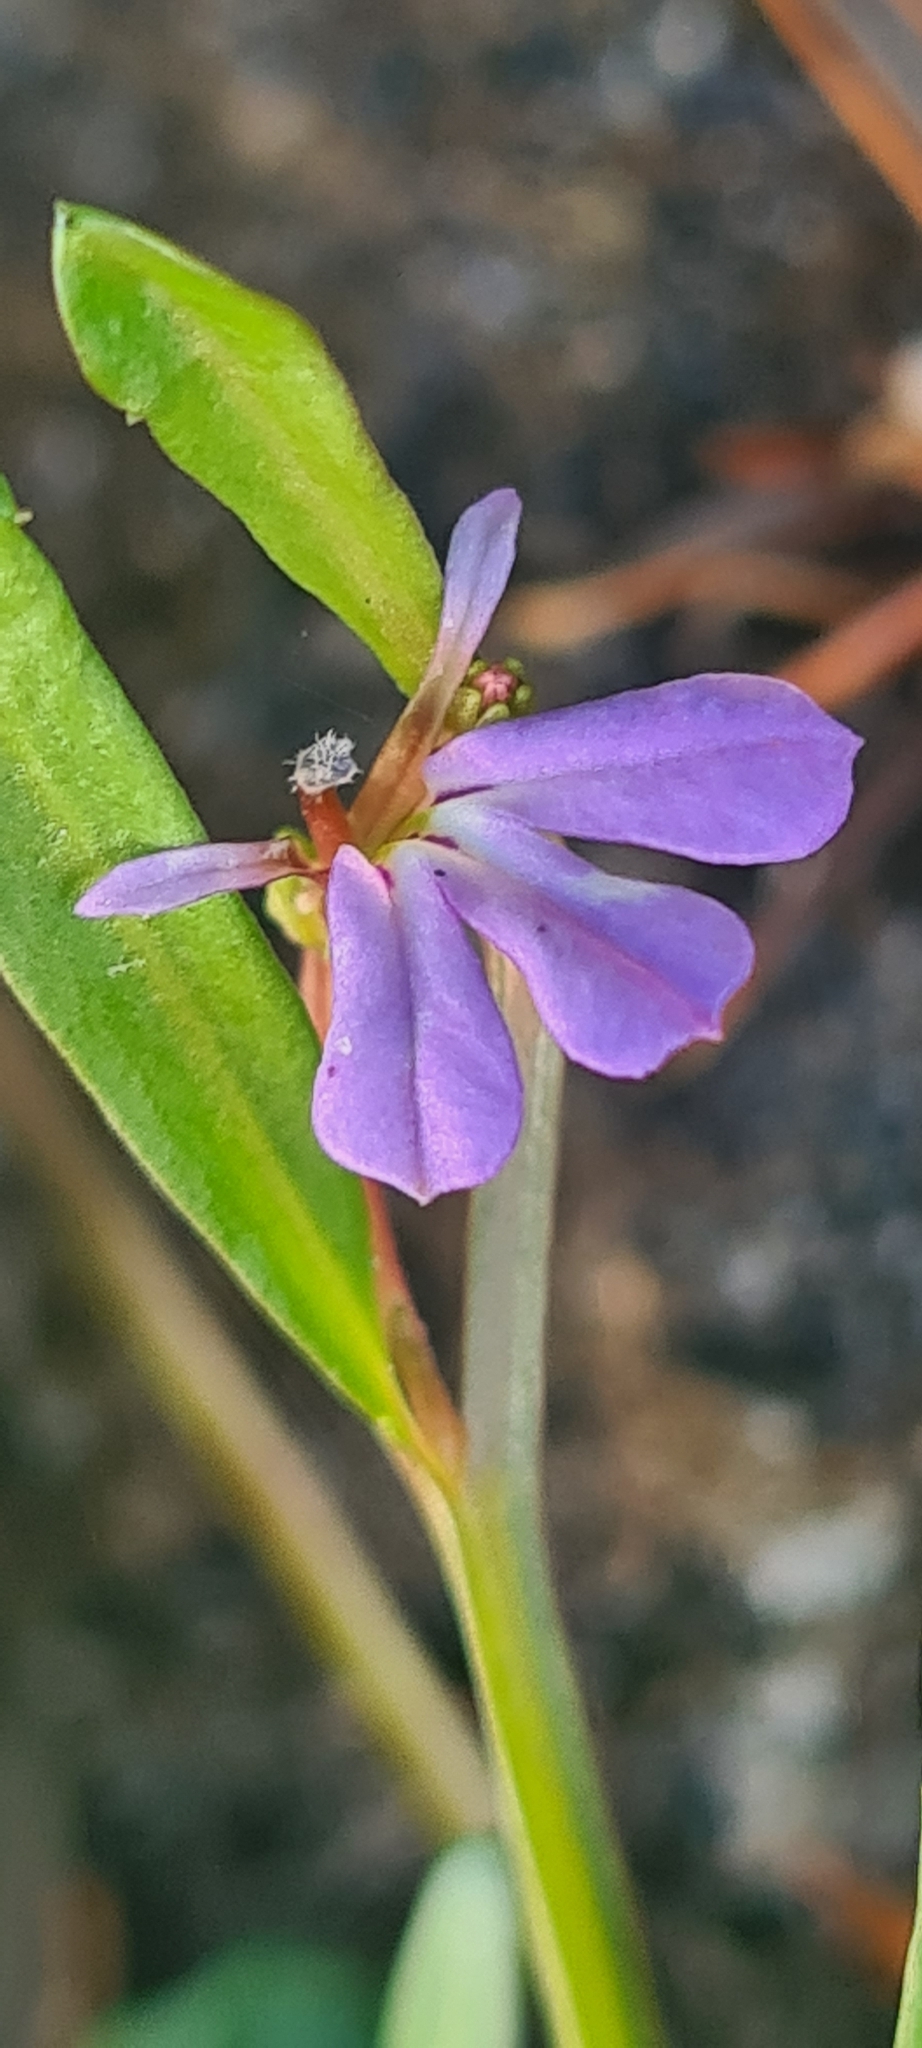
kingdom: Plantae
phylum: Tracheophyta
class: Magnoliopsida
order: Asterales
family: Campanulaceae
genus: Lobelia
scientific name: Lobelia anceps
